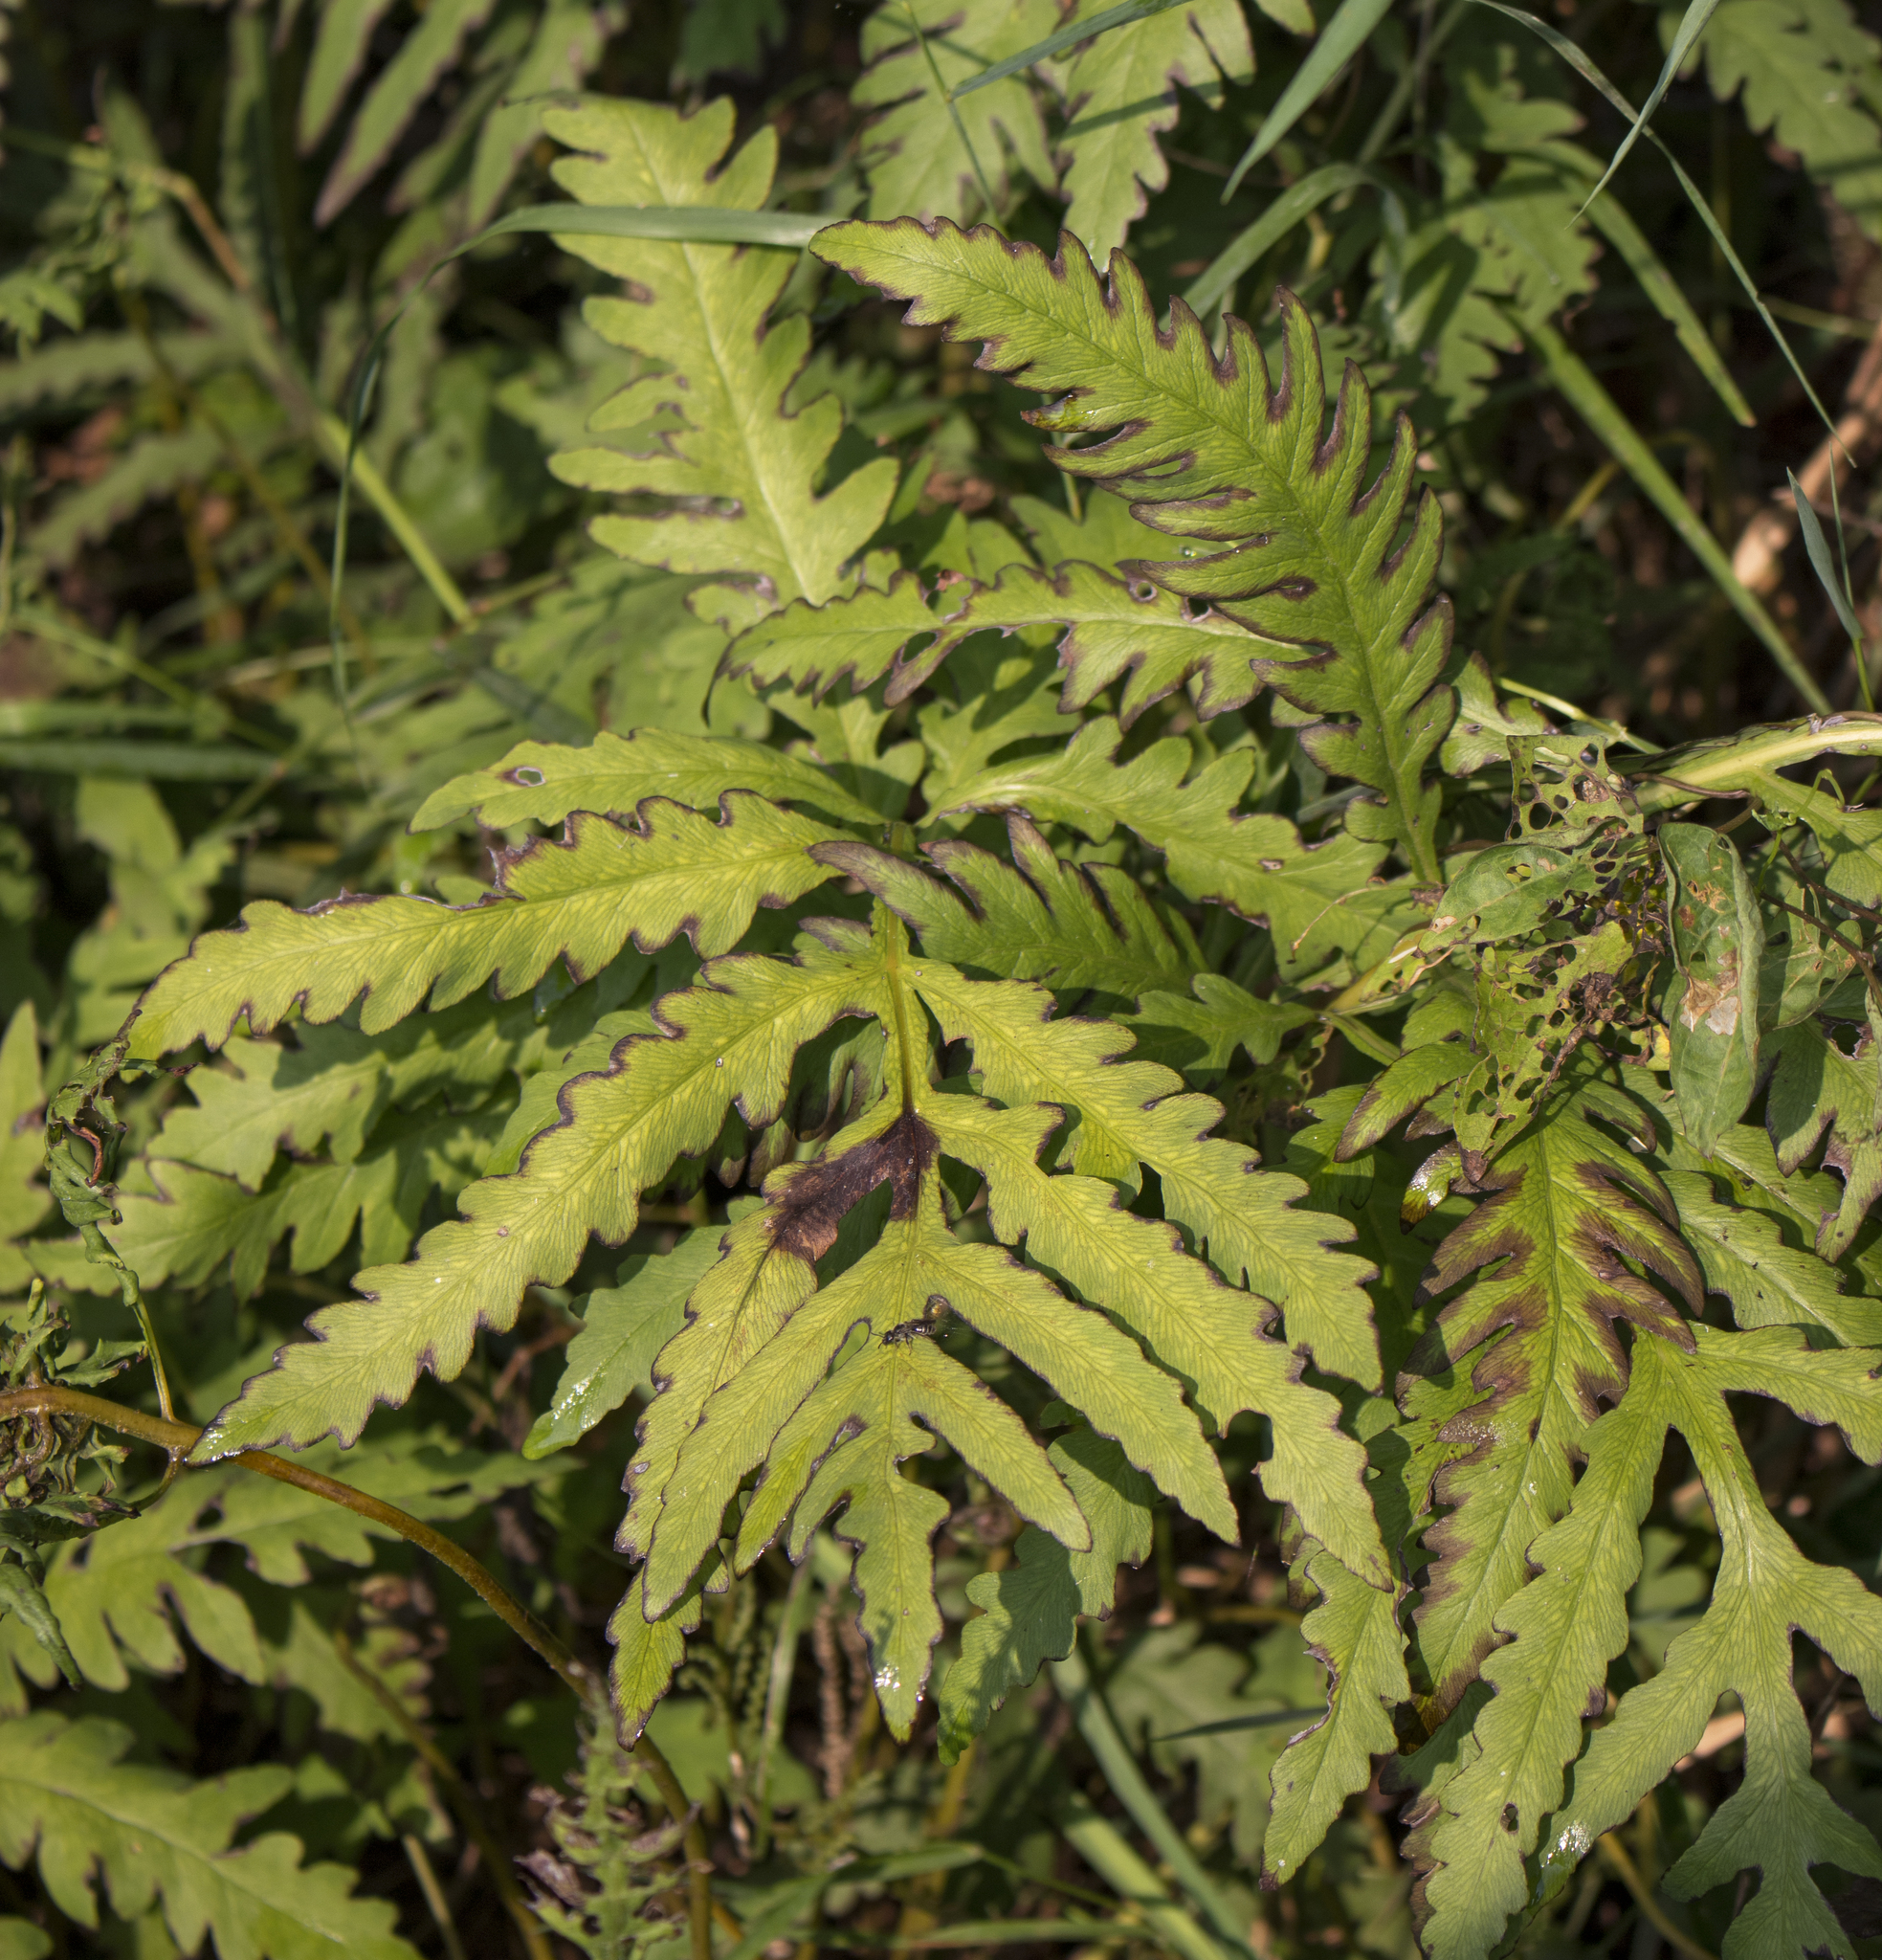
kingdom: Plantae
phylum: Tracheophyta
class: Polypodiopsida
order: Polypodiales
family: Onocleaceae
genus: Onoclea
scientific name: Onoclea sensibilis
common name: Sensitive fern
